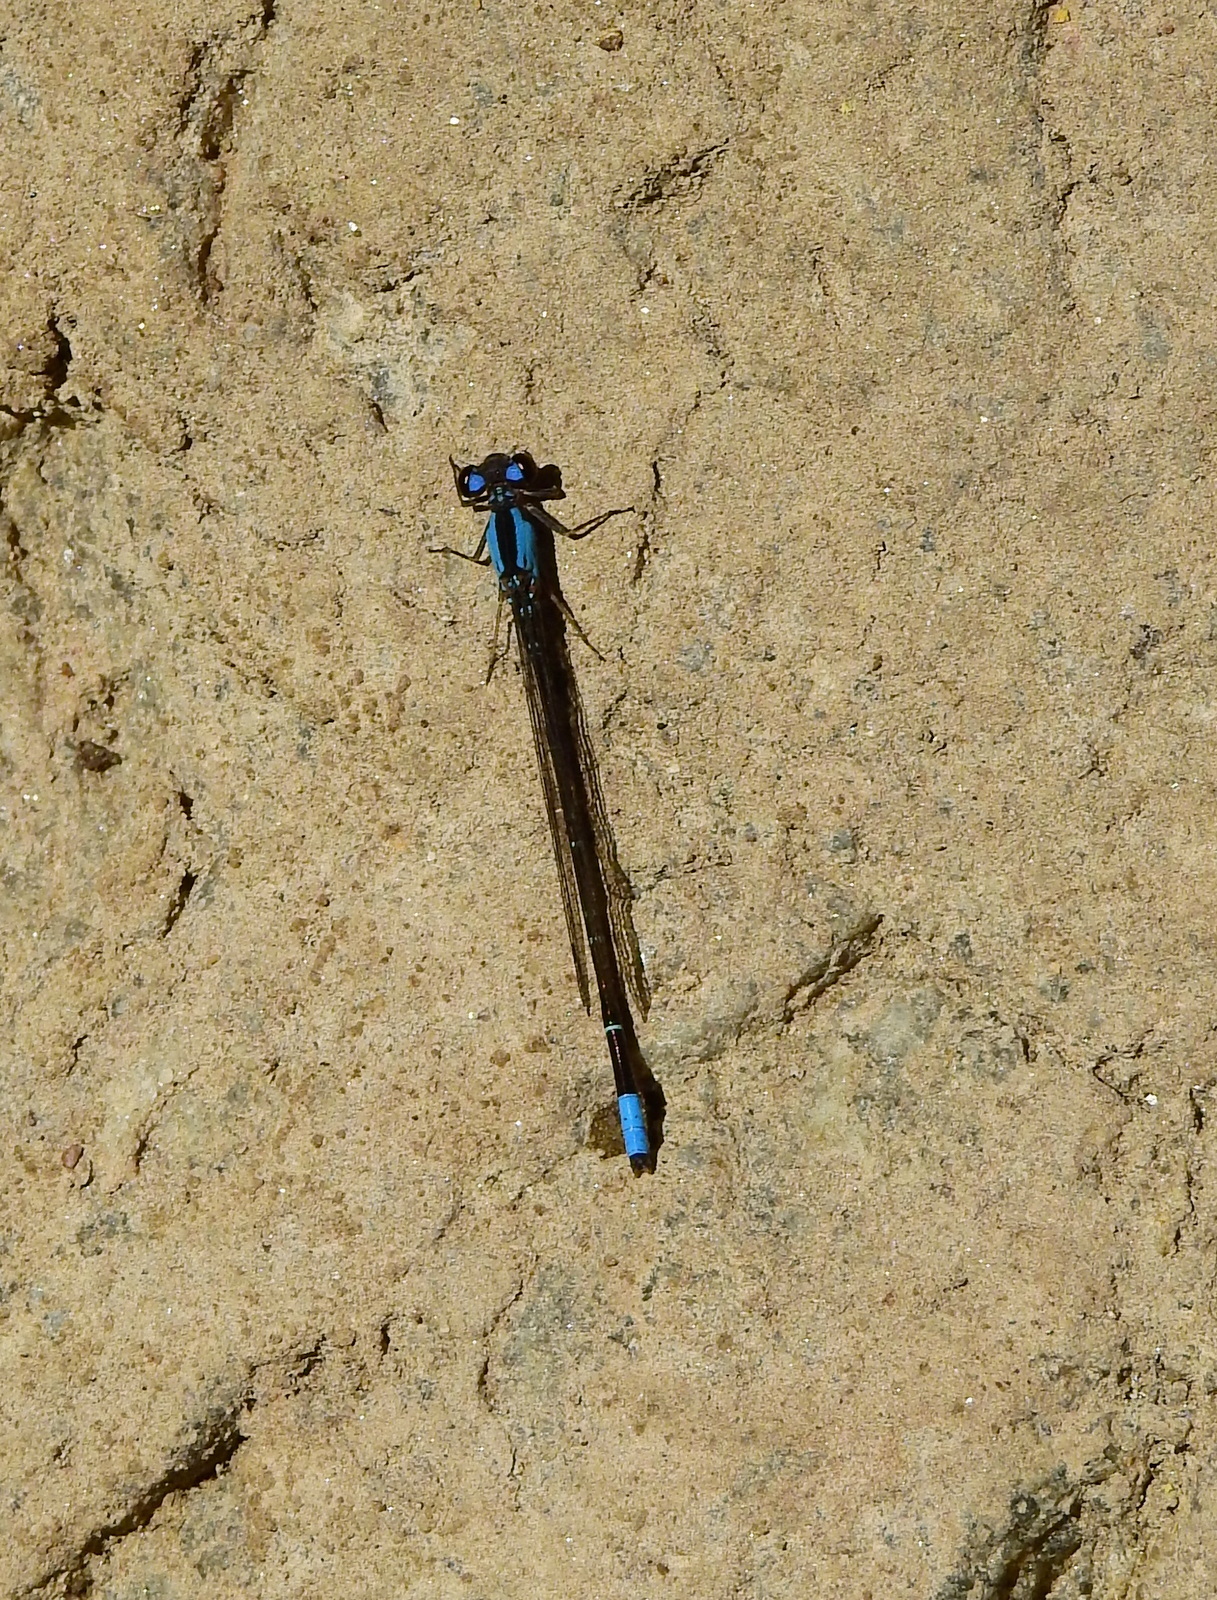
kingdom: Animalia
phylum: Arthropoda
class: Insecta
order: Odonata
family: Coenagrionidae
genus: Oxyagrion
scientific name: Oxyagrion ablutum
